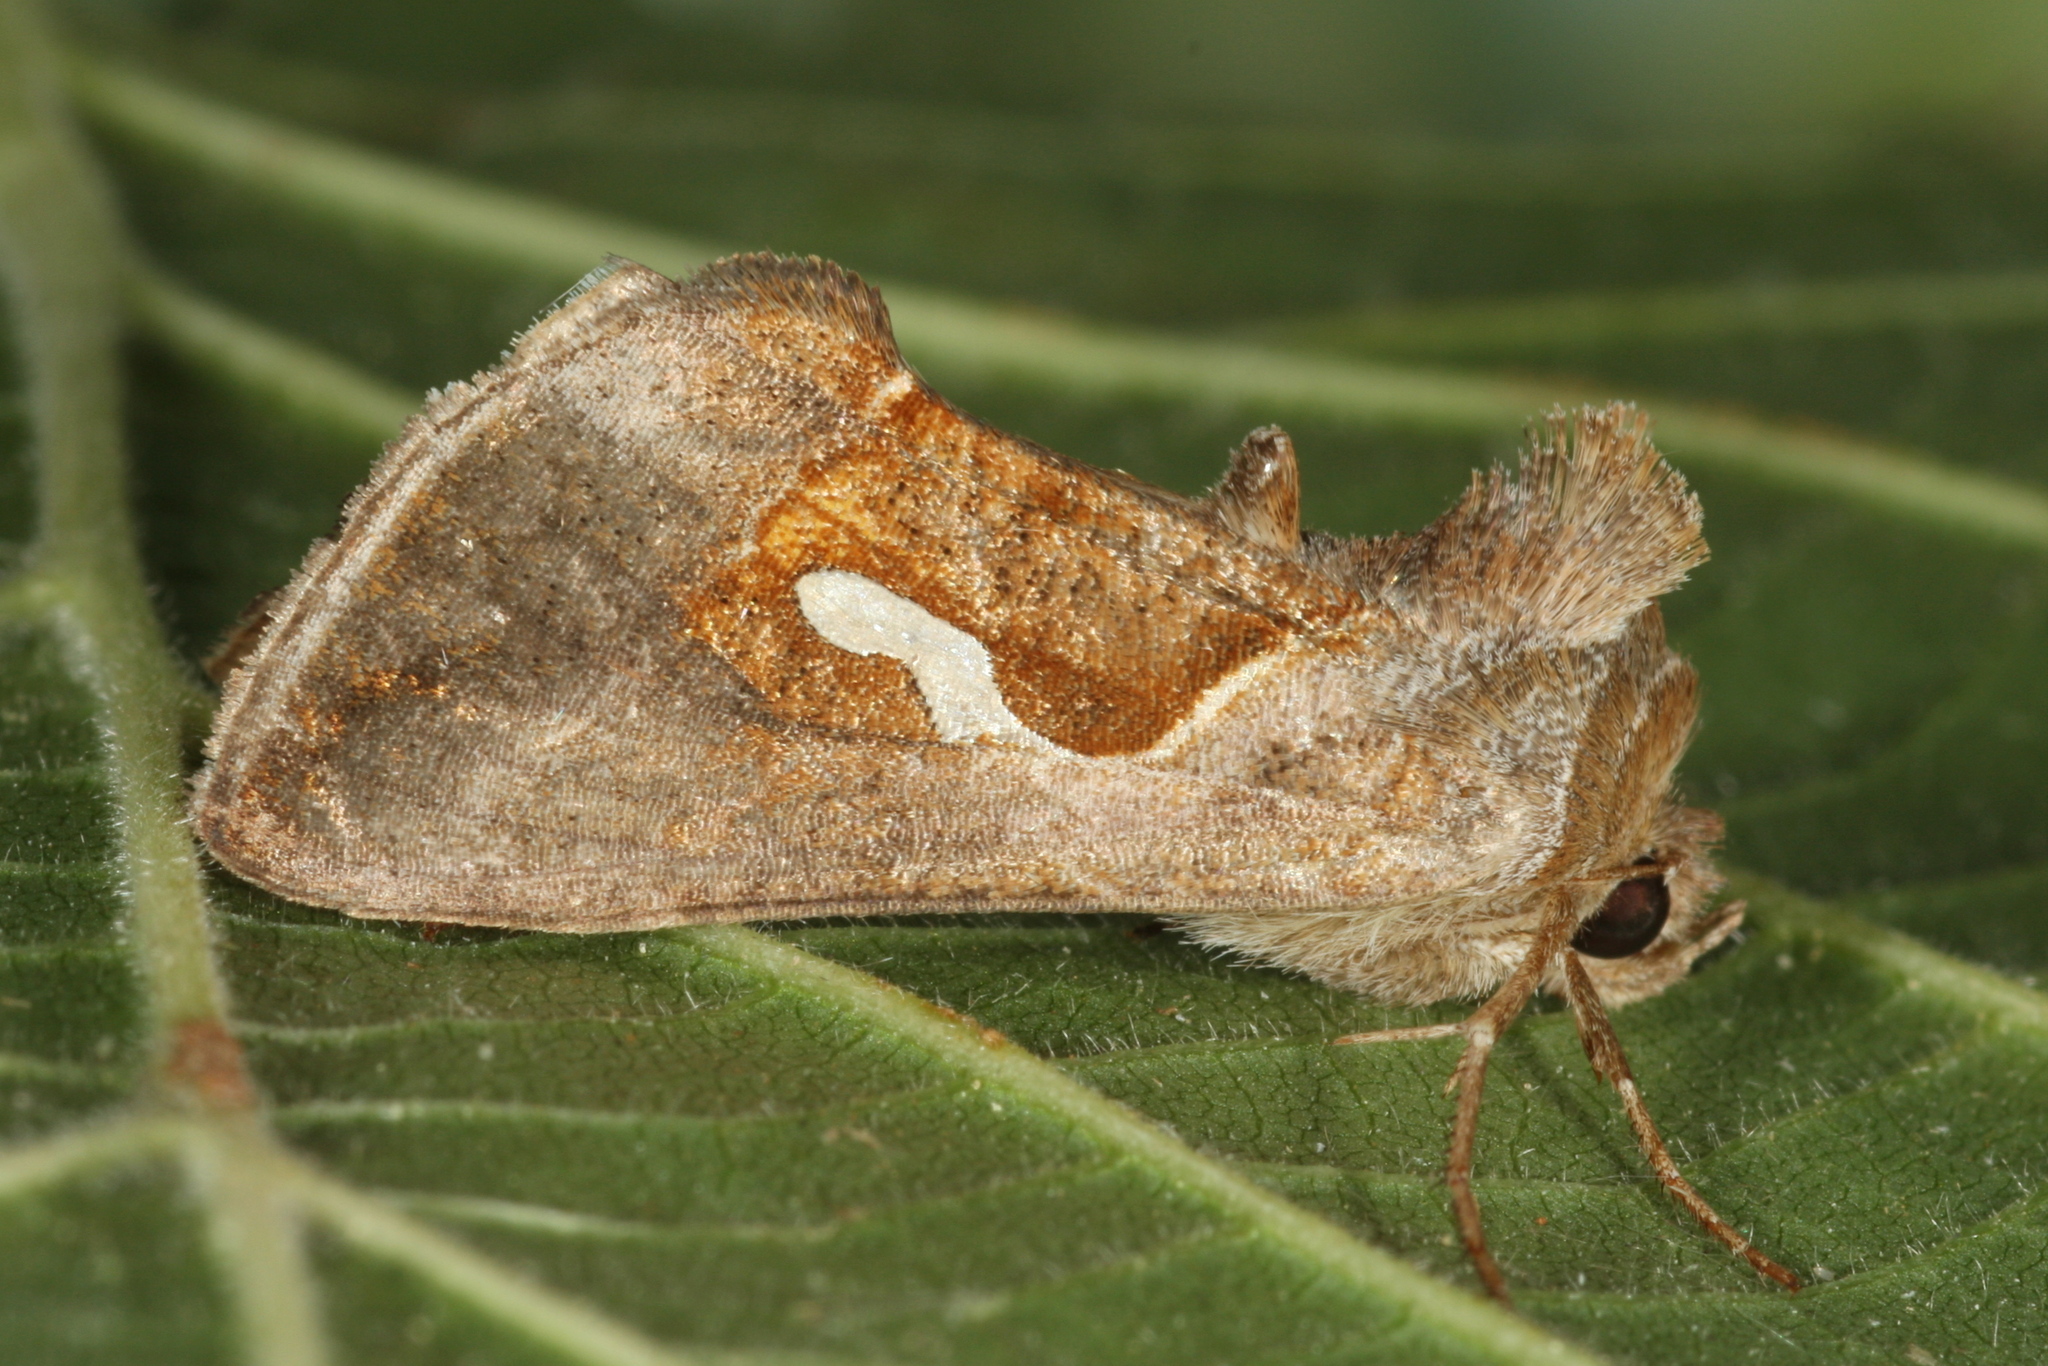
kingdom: Animalia
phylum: Arthropoda
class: Insecta
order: Lepidoptera
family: Noctuidae
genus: Macdunnoughia
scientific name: Macdunnoughia confusa
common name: Dewick's plusia
